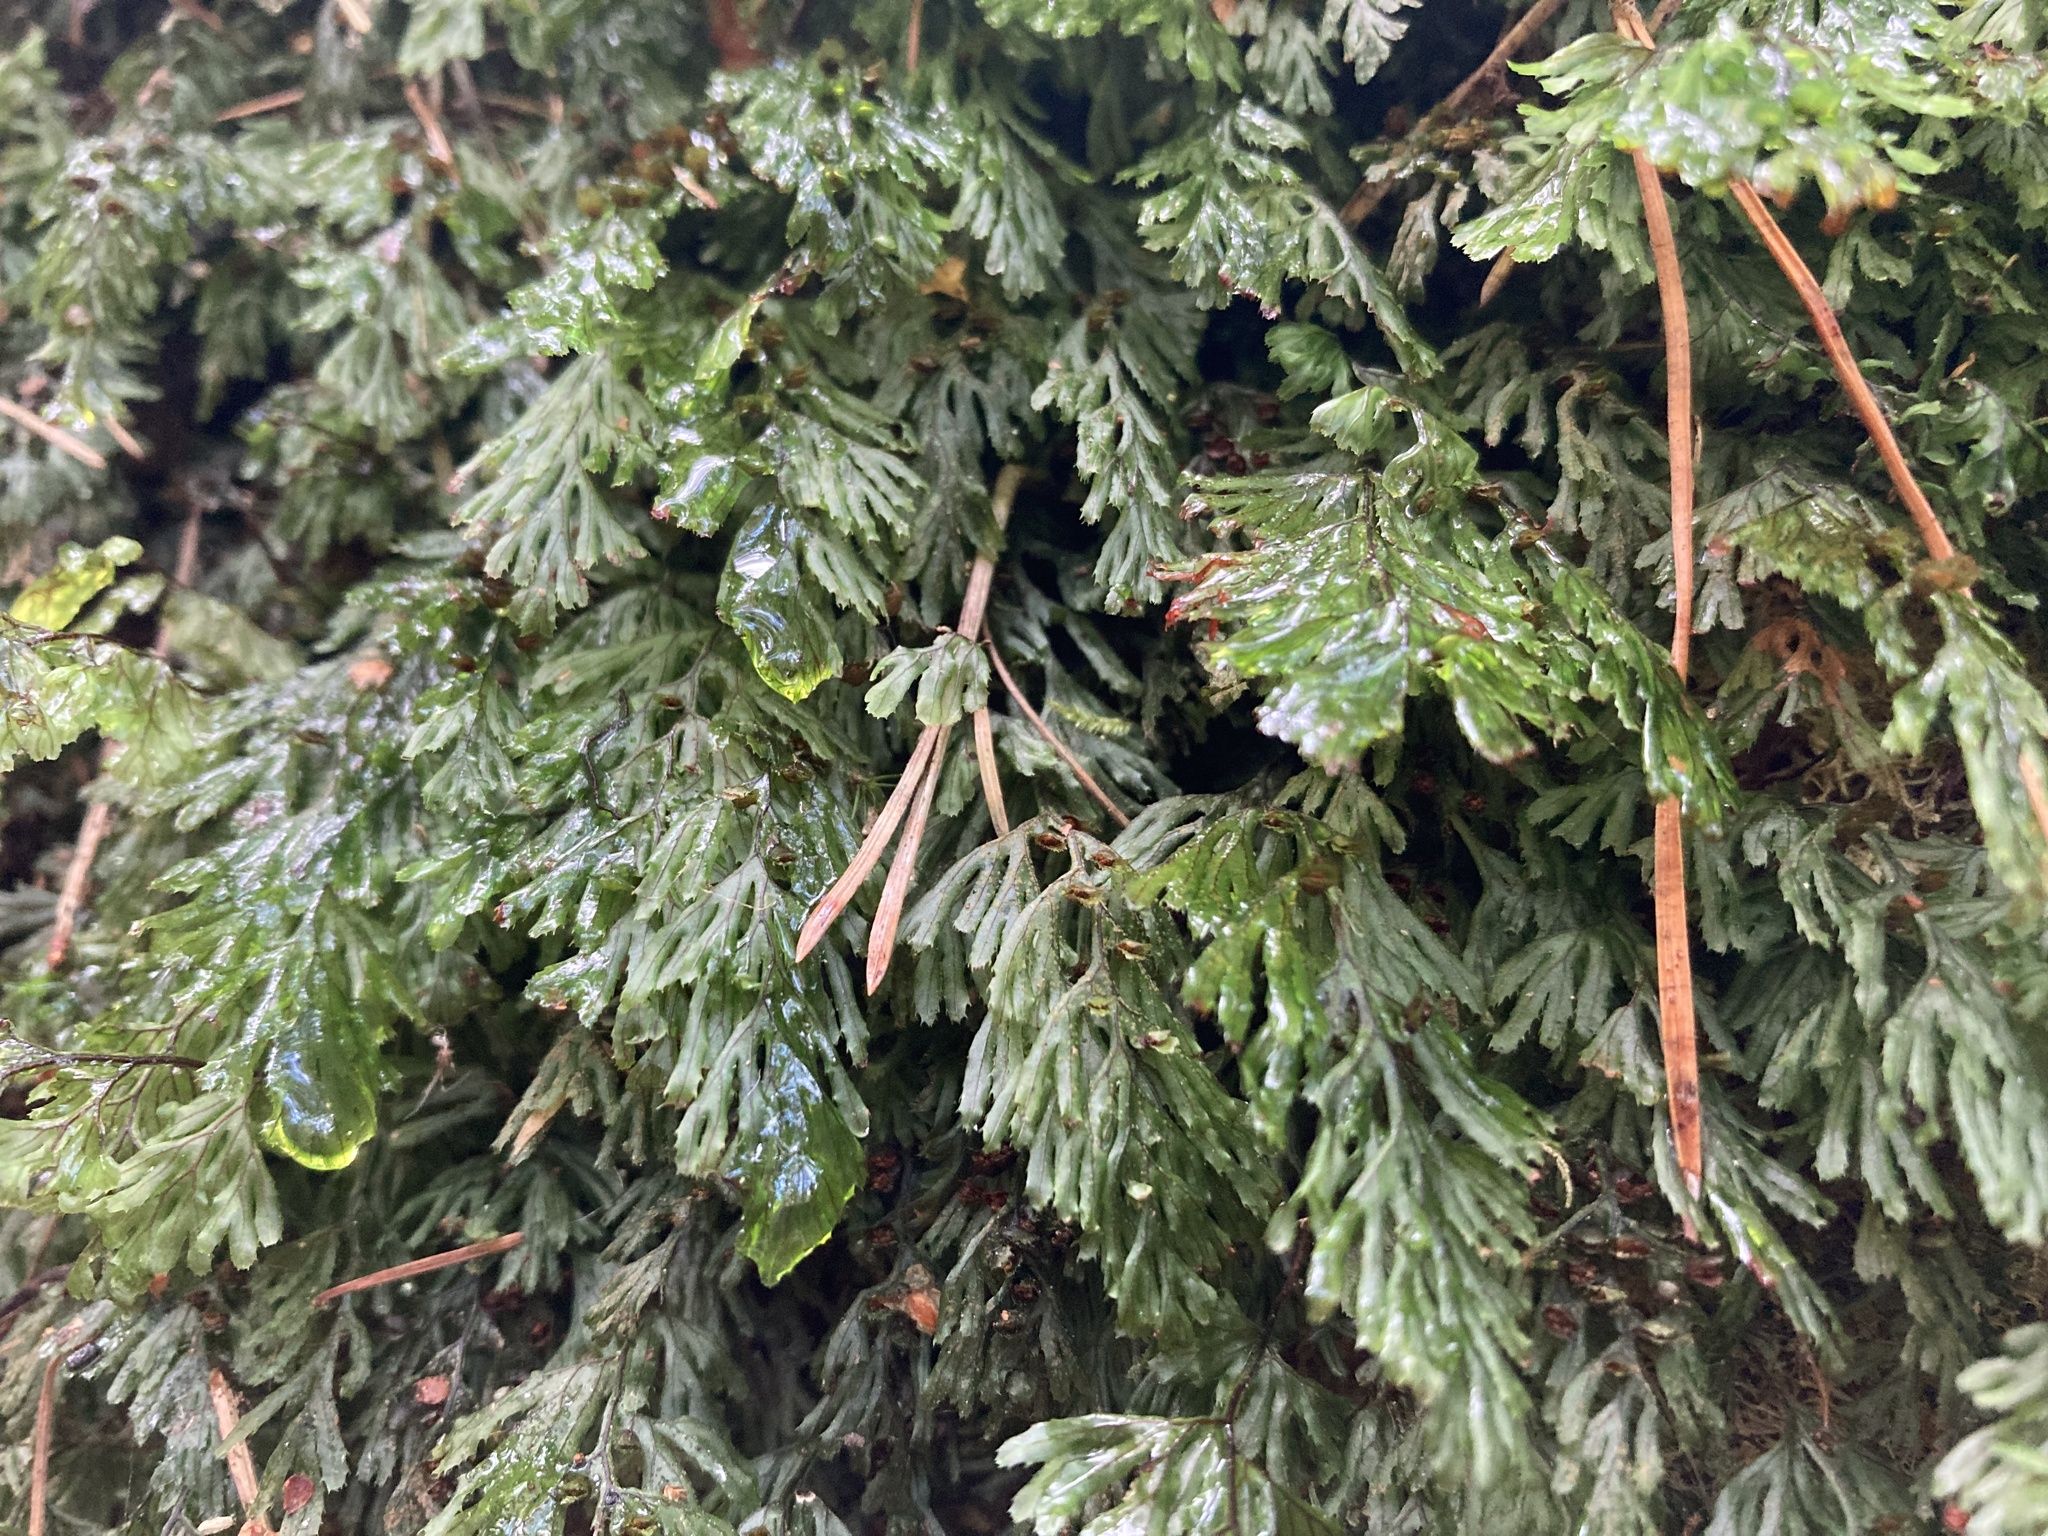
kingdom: Plantae
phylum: Tracheophyta
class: Polypodiopsida
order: Hymenophyllales
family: Hymenophyllaceae
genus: Hymenophyllum
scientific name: Hymenophyllum tunbrigense
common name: Tunbridge filmy fern
